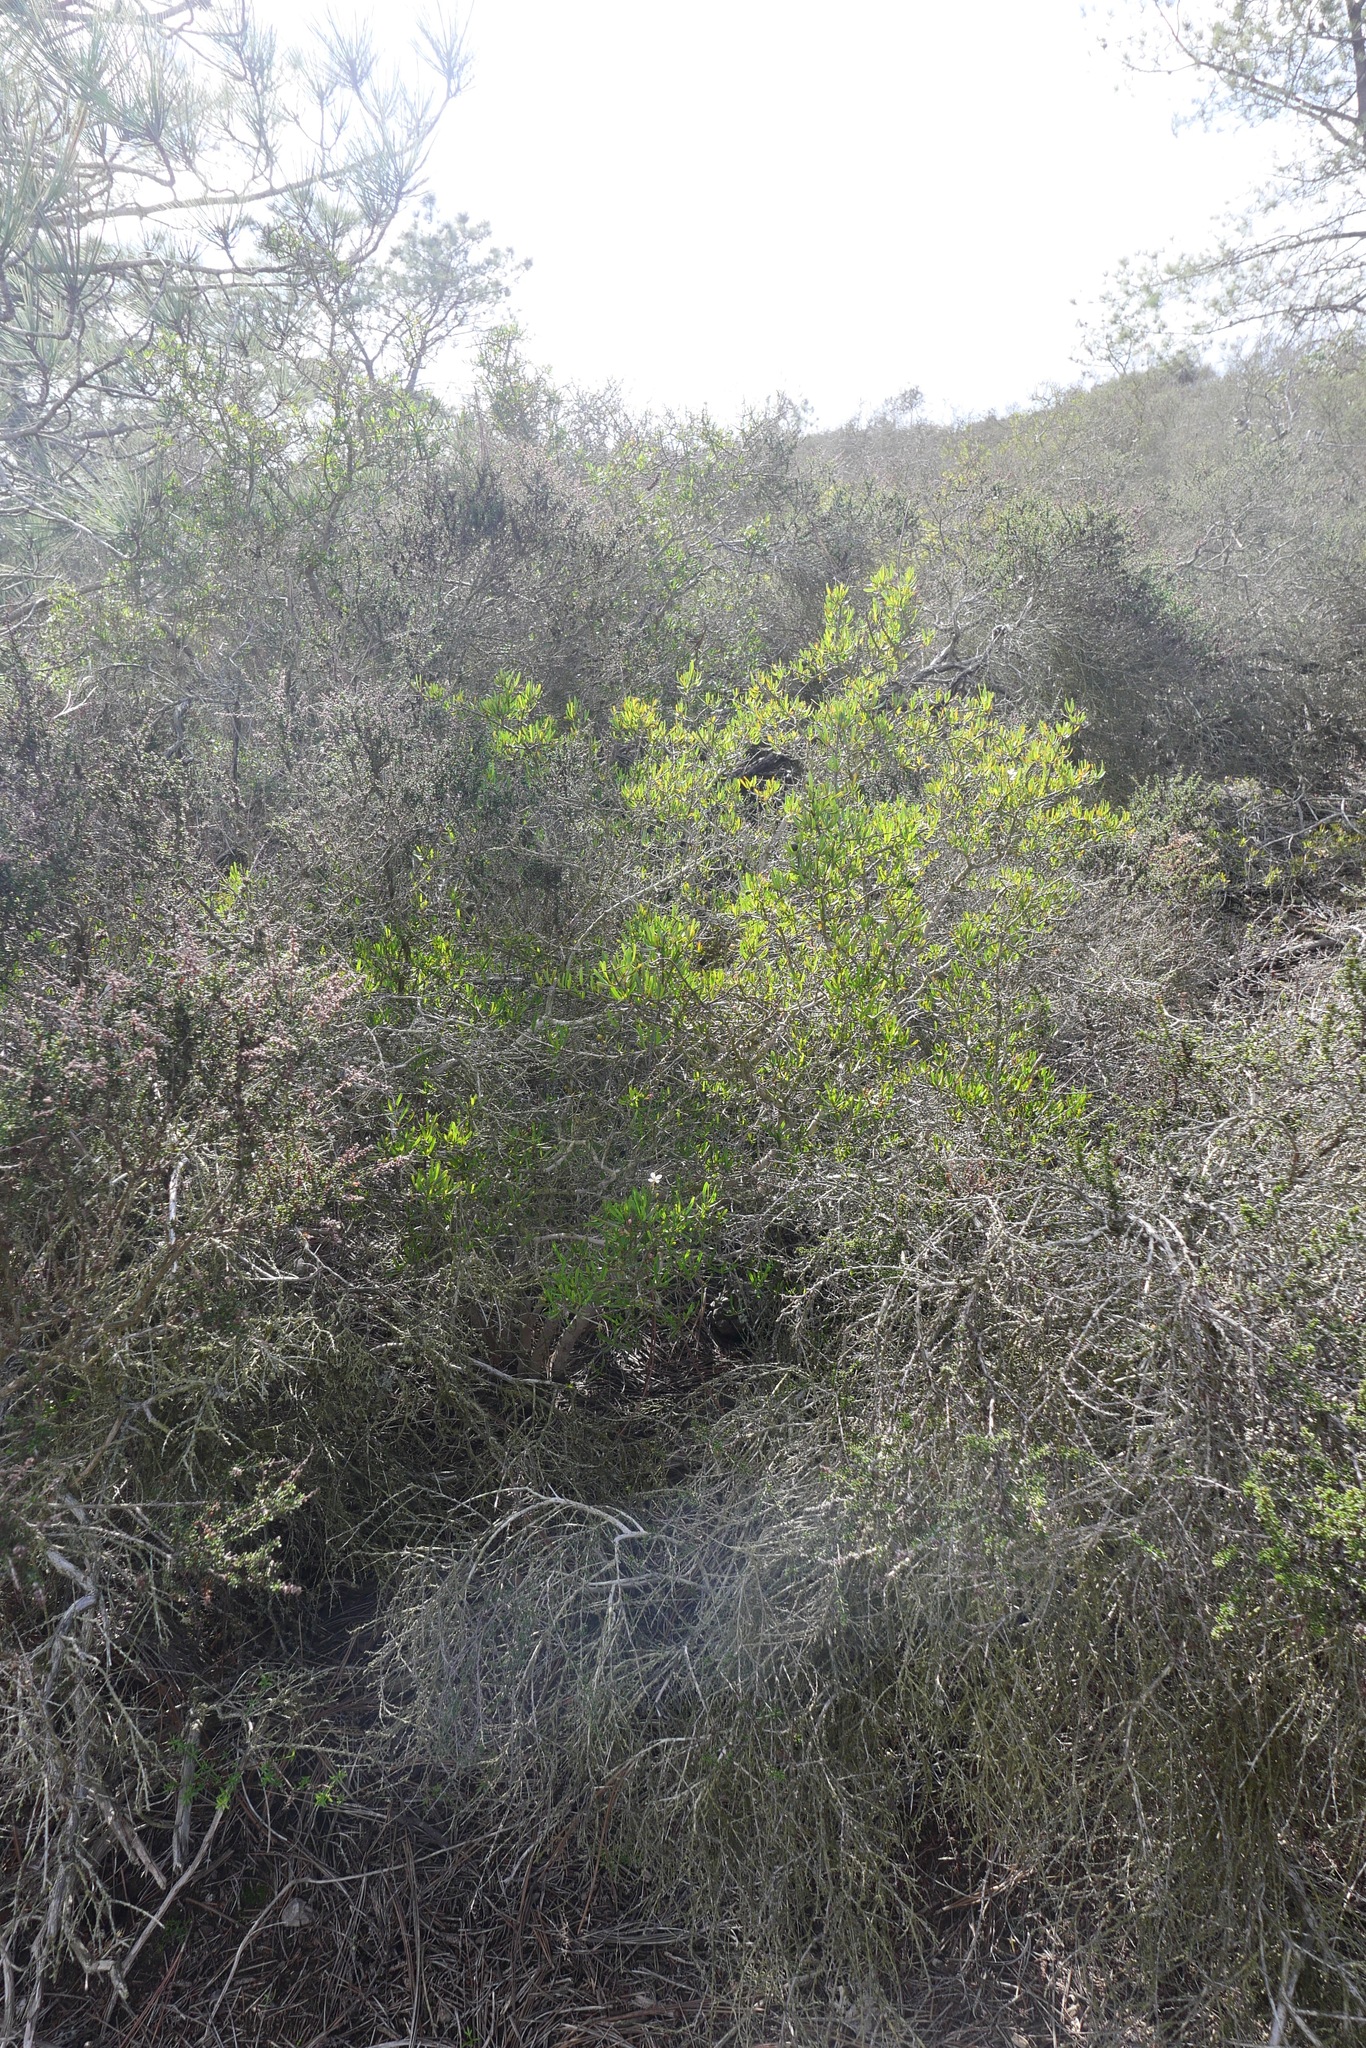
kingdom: Plantae
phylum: Tracheophyta
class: Magnoliopsida
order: Sapindales
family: Rutaceae
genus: Cneoridium
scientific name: Cneoridium dumosum
